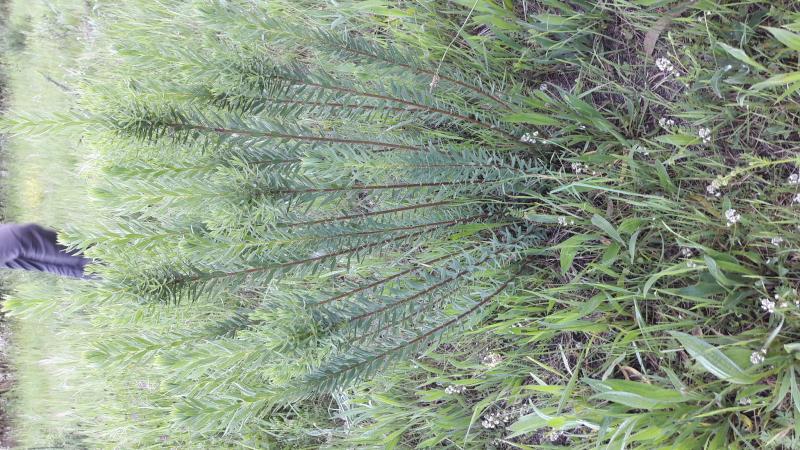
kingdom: Plantae
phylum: Tracheophyta
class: Magnoliopsida
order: Malvales
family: Thymelaeaceae
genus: Daphne
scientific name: Daphne gnidium
